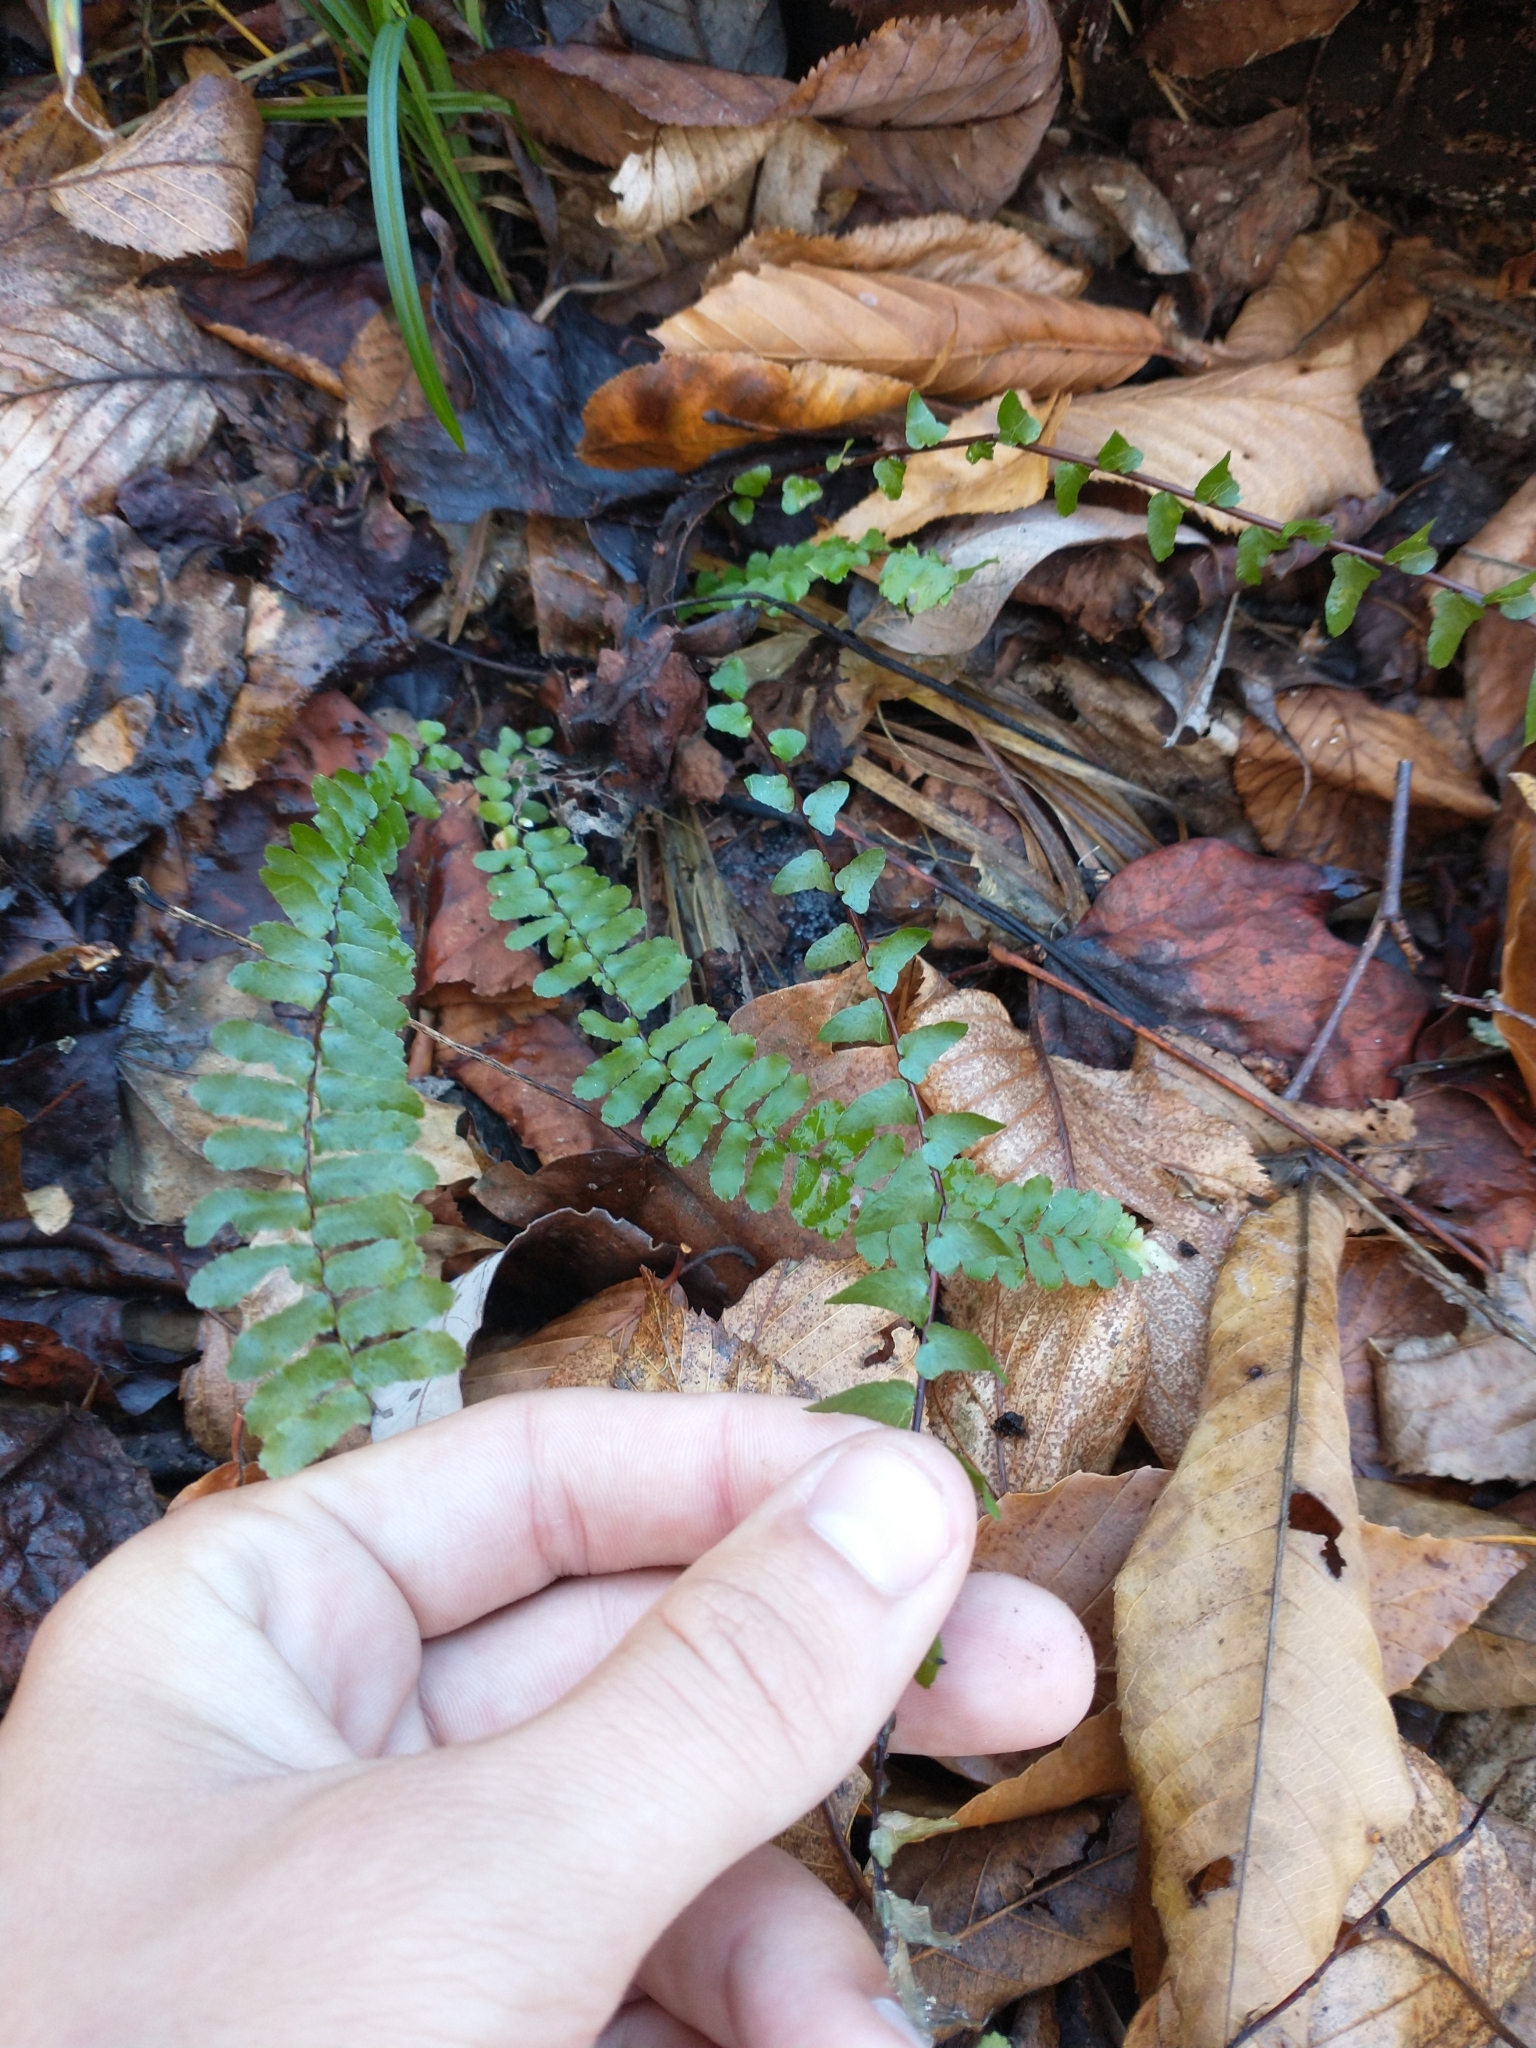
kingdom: Plantae
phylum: Tracheophyta
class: Polypodiopsida
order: Polypodiales
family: Aspleniaceae
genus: Asplenium
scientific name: Asplenium platyneuron
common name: Ebony spleenwort
